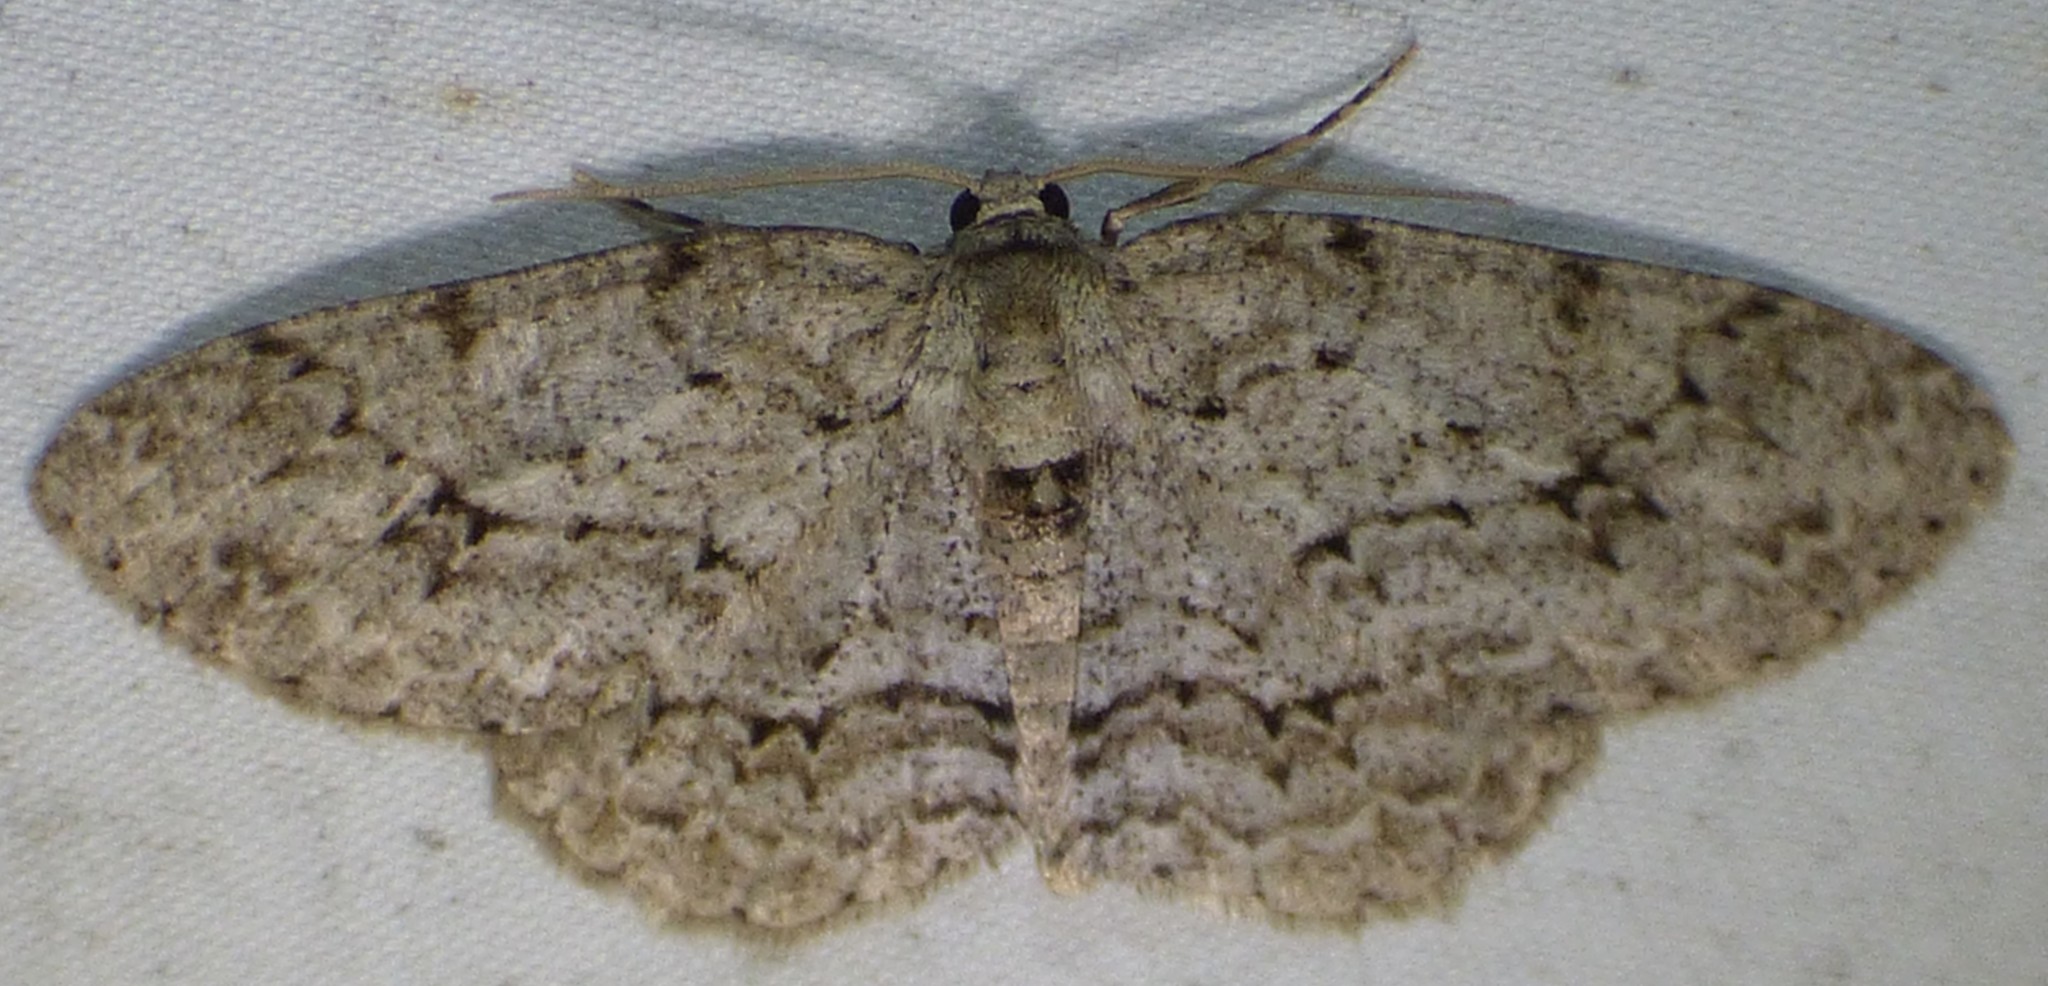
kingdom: Animalia
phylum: Arthropoda
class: Insecta
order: Lepidoptera
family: Geometridae
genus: Ectropis
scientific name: Ectropis crepuscularia
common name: Engrailed
